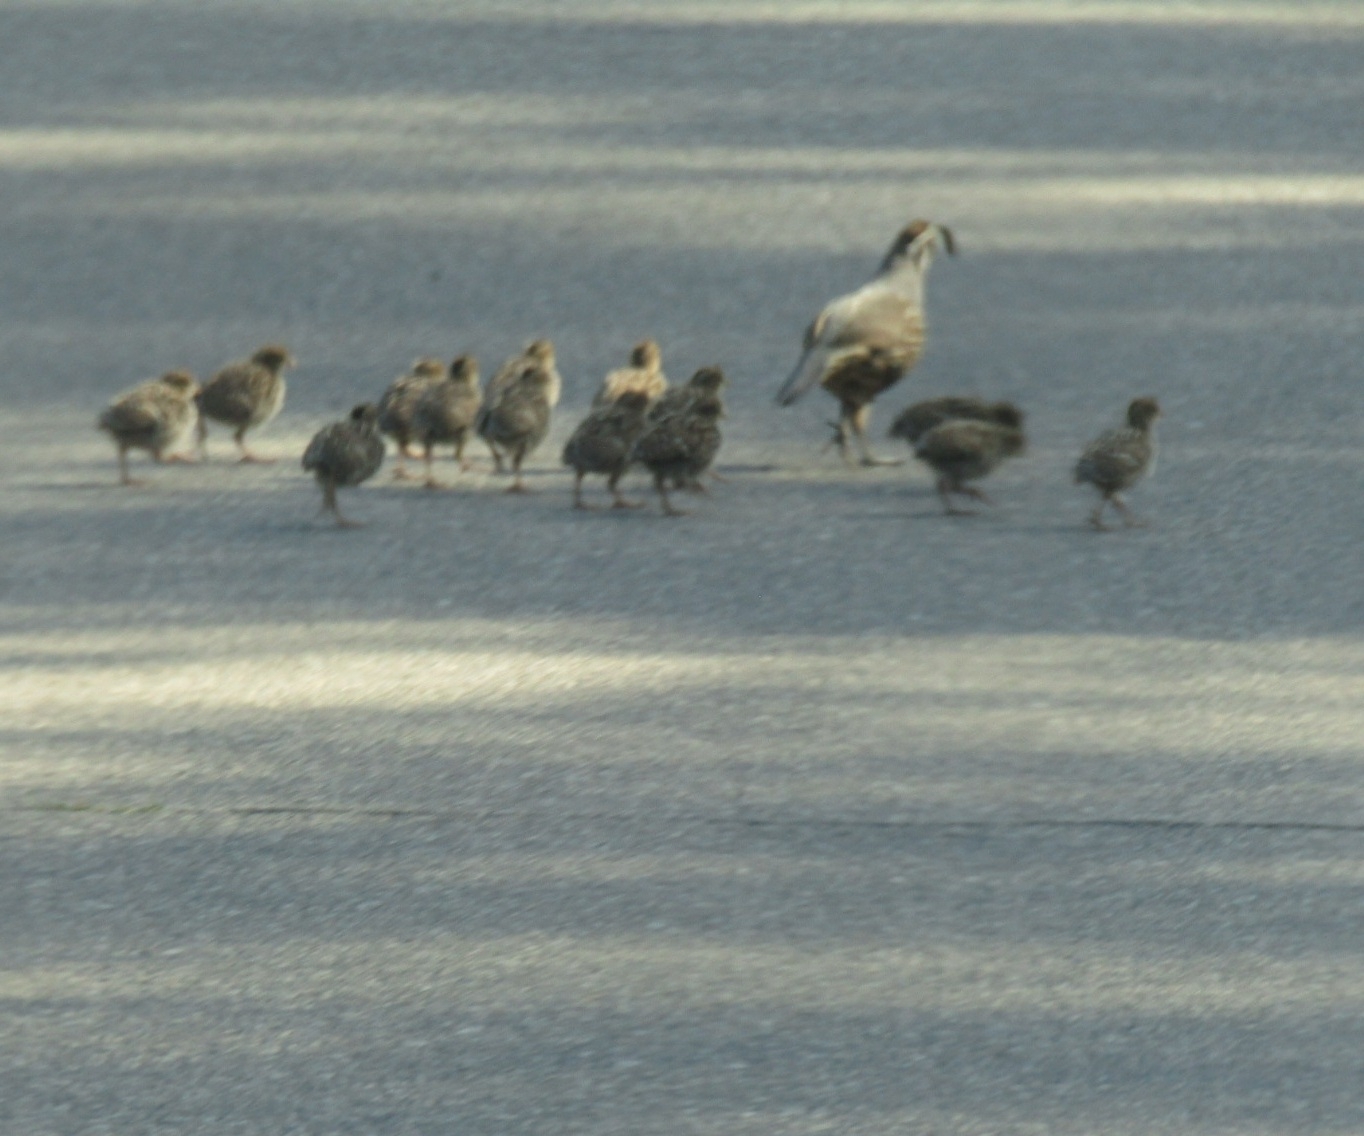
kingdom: Animalia
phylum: Chordata
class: Aves
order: Galliformes
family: Odontophoridae
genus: Callipepla
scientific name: Callipepla californica
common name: California quail
